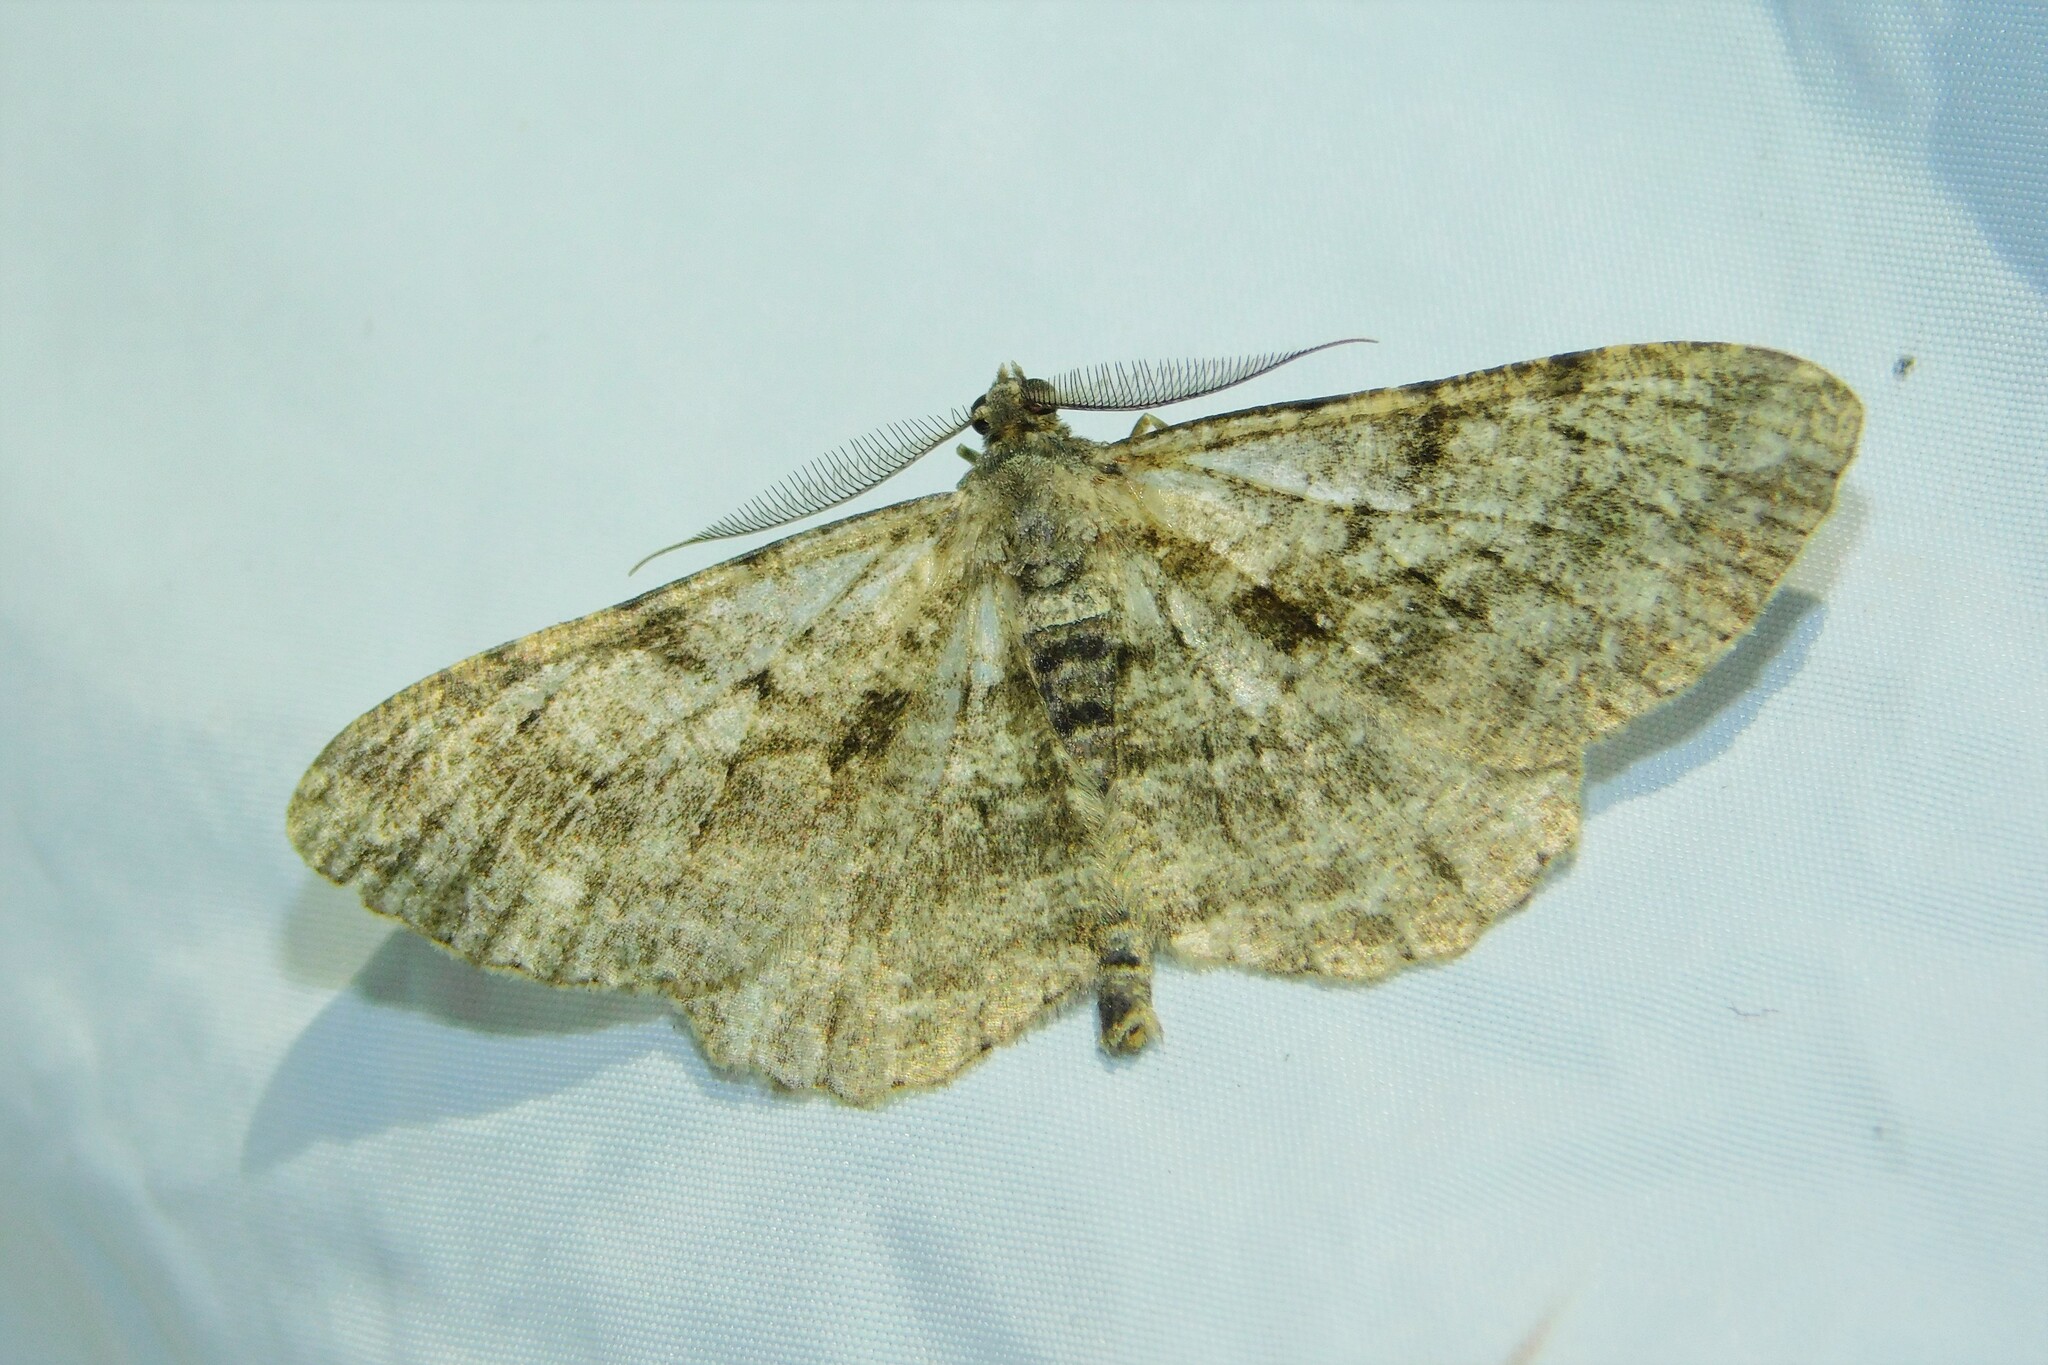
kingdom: Animalia
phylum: Arthropoda
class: Insecta
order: Lepidoptera
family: Geometridae
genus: Peribatodes
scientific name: Peribatodes rhomboidaria
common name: Willow beauty
